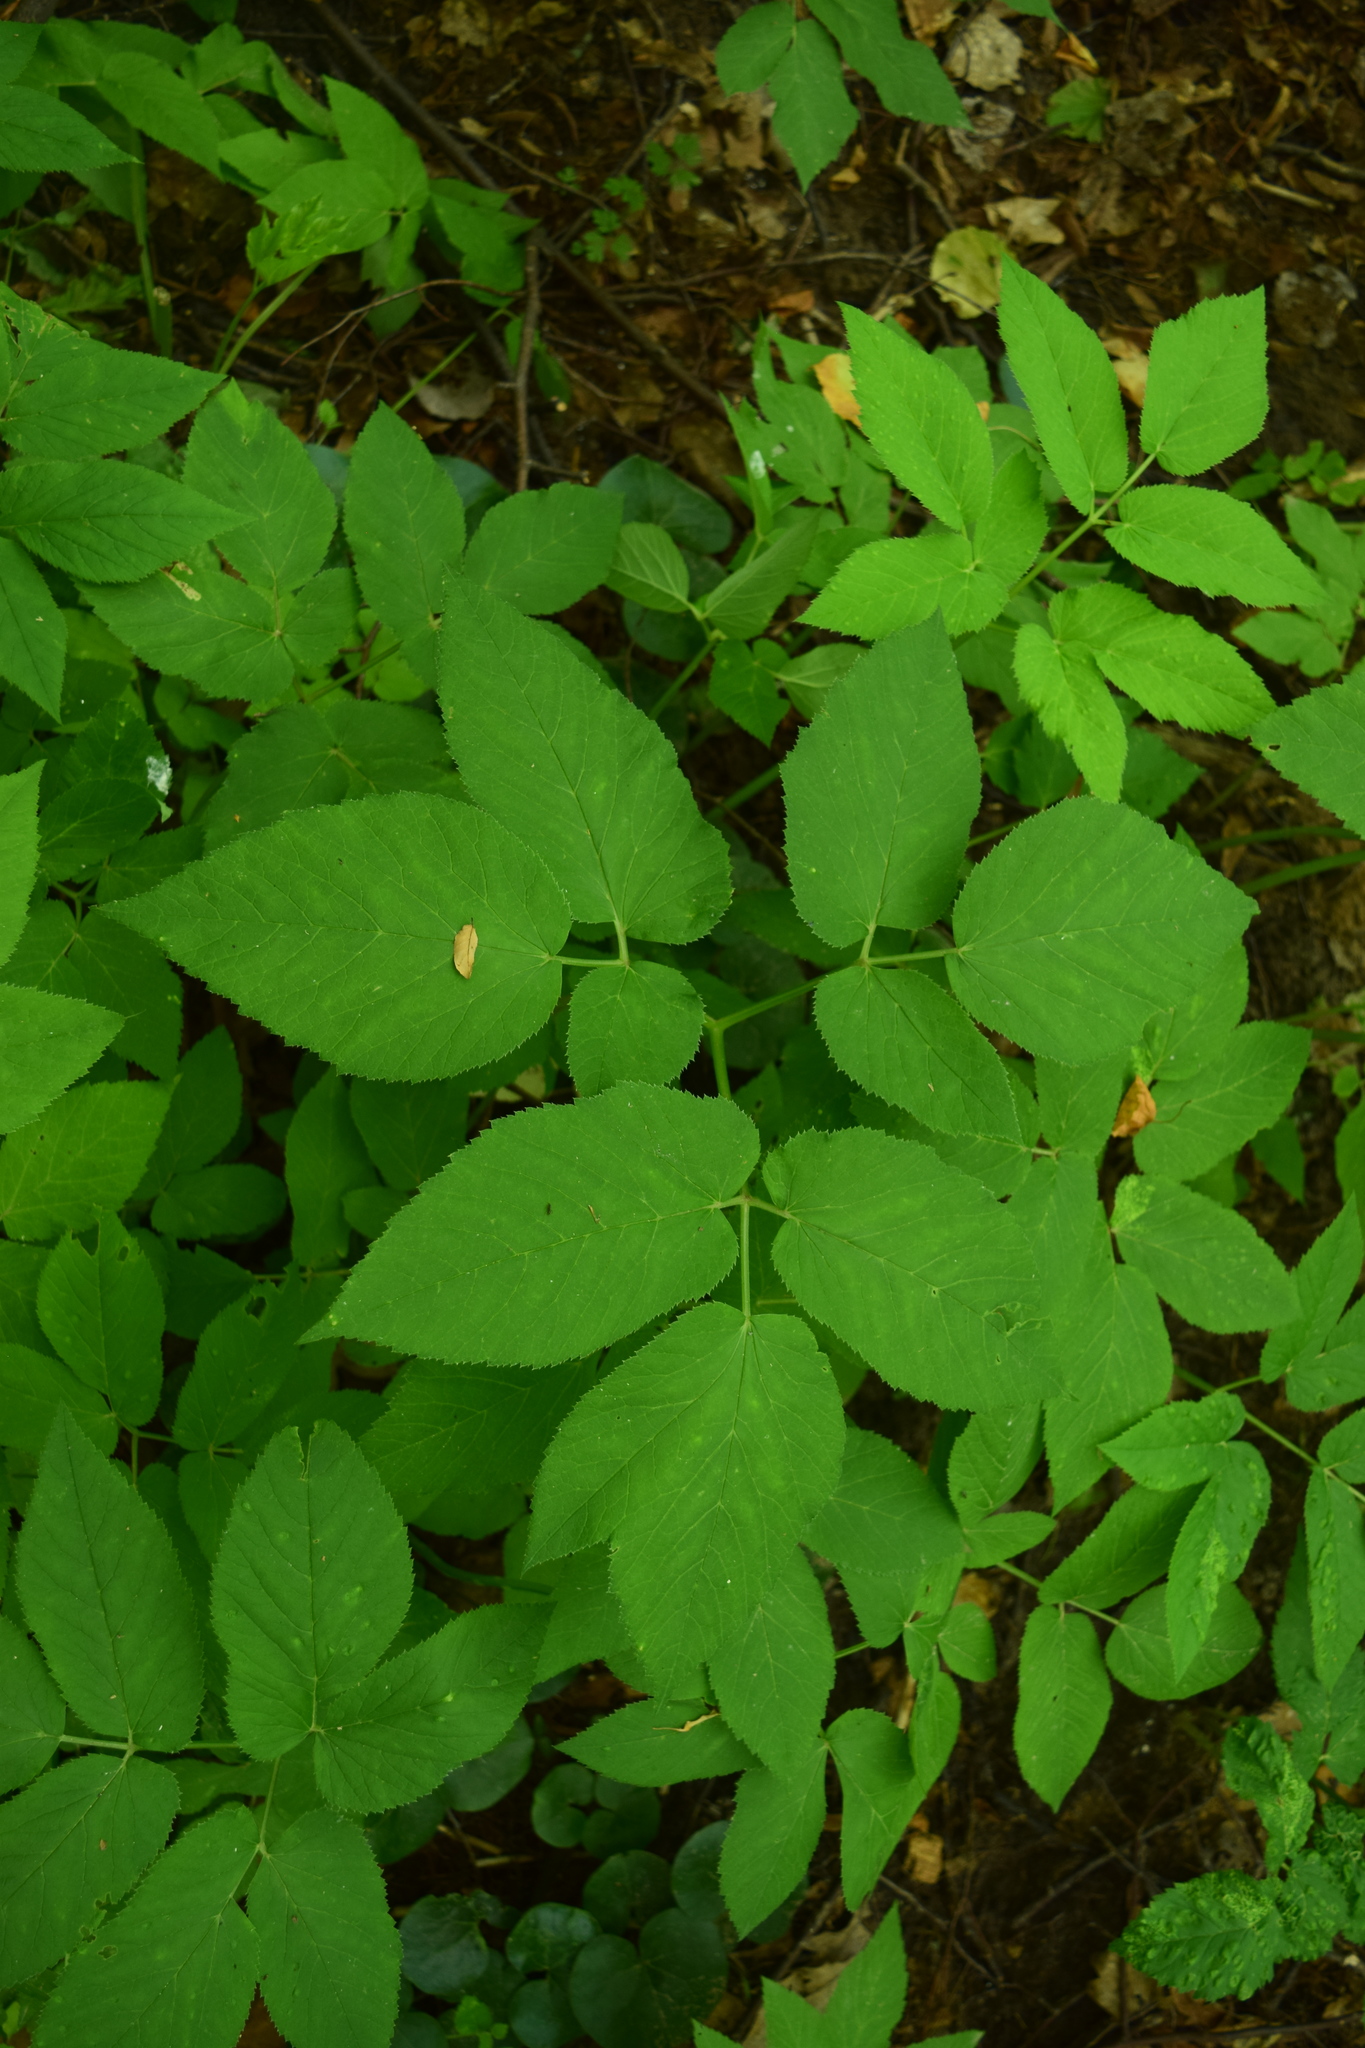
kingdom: Plantae
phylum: Tracheophyta
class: Magnoliopsida
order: Apiales
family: Apiaceae
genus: Aegopodium
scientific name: Aegopodium podagraria
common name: Ground-elder
